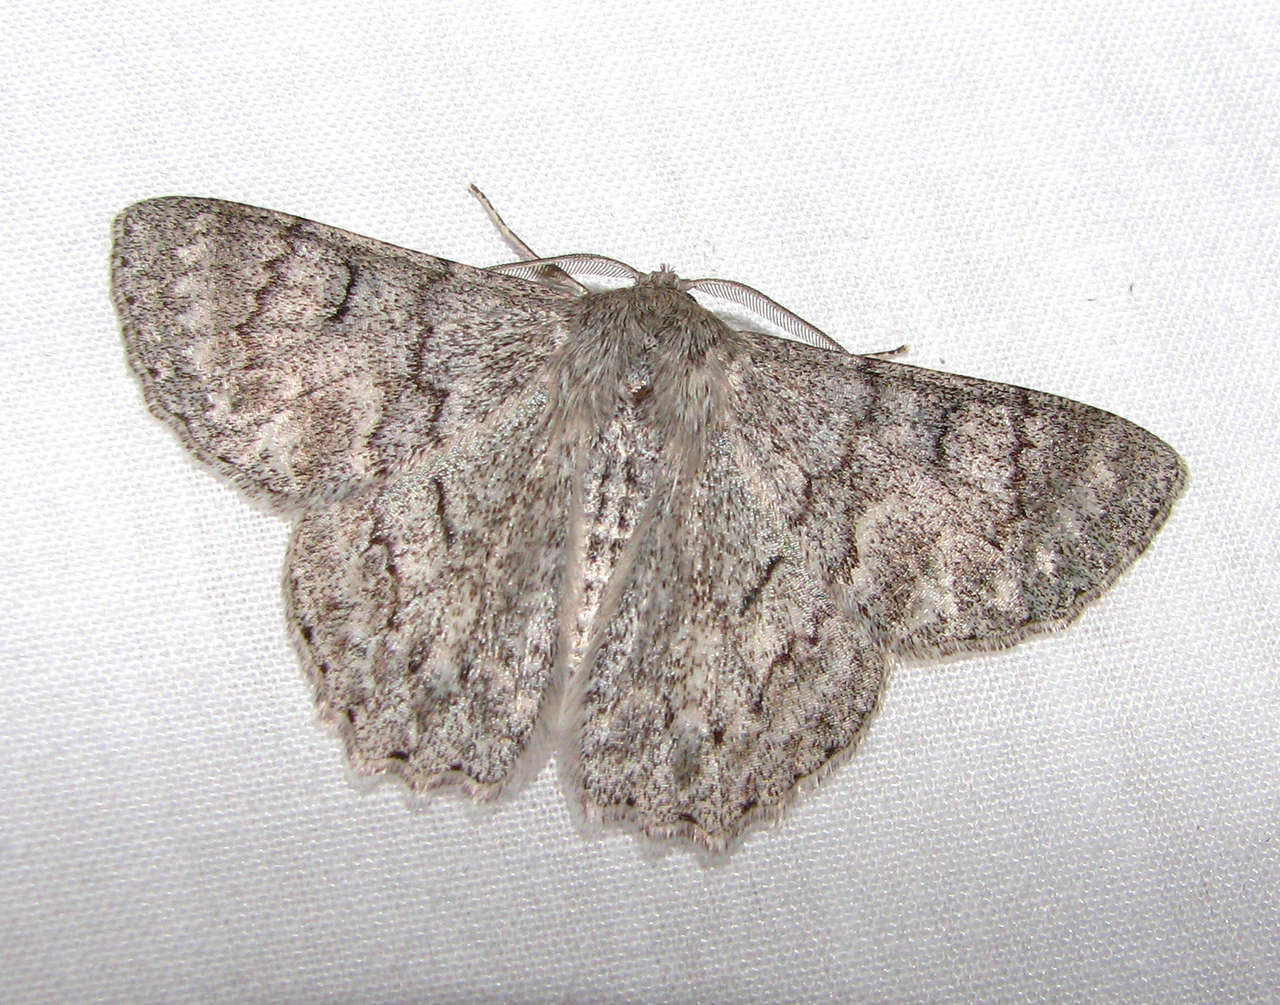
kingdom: Animalia
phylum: Arthropoda
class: Insecta
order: Lepidoptera
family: Geometridae
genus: Crypsiphona
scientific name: Crypsiphona ocultaria
